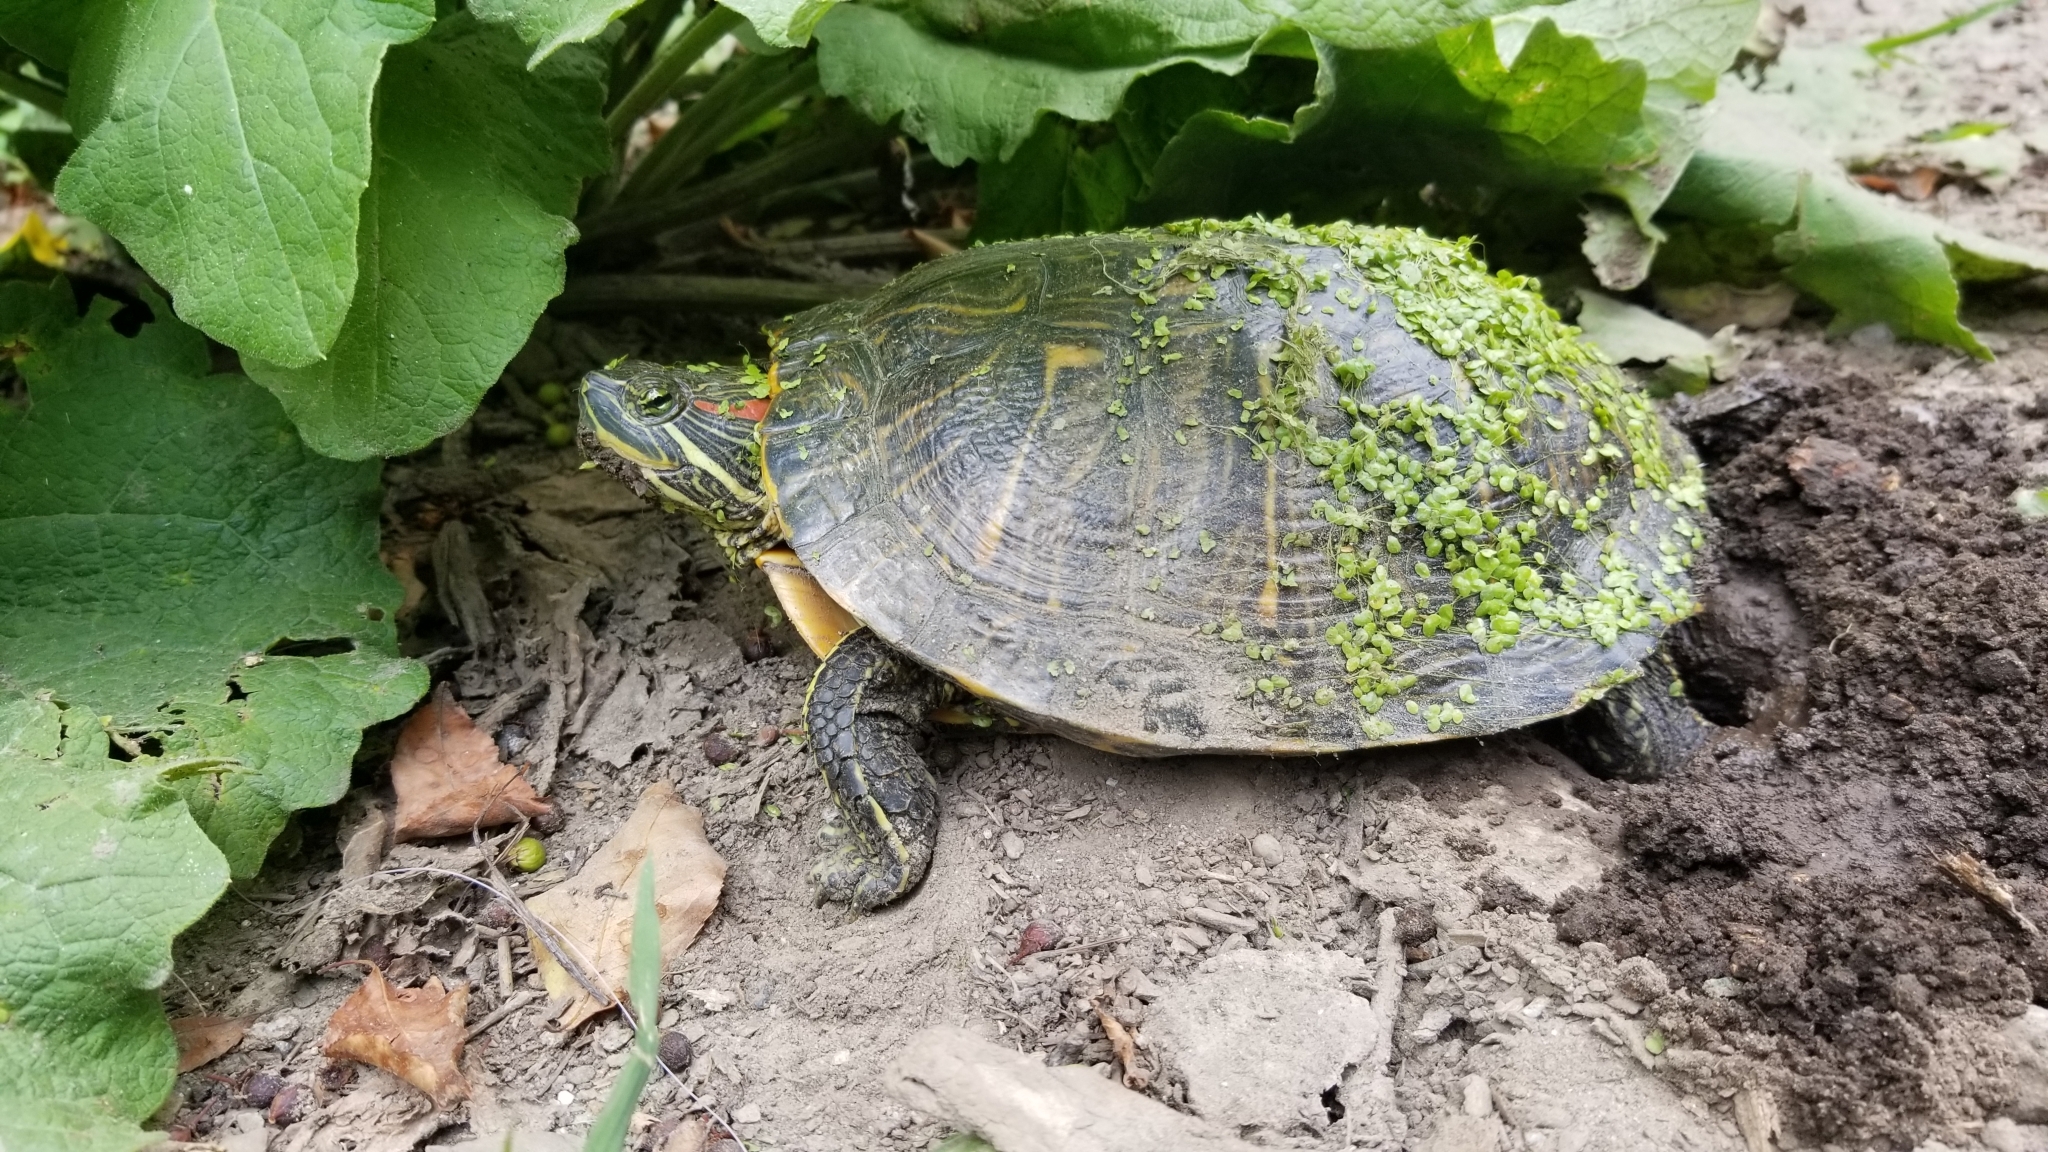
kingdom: Animalia
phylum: Chordata
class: Testudines
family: Emydidae
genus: Trachemys
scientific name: Trachemys scripta
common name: Slider
